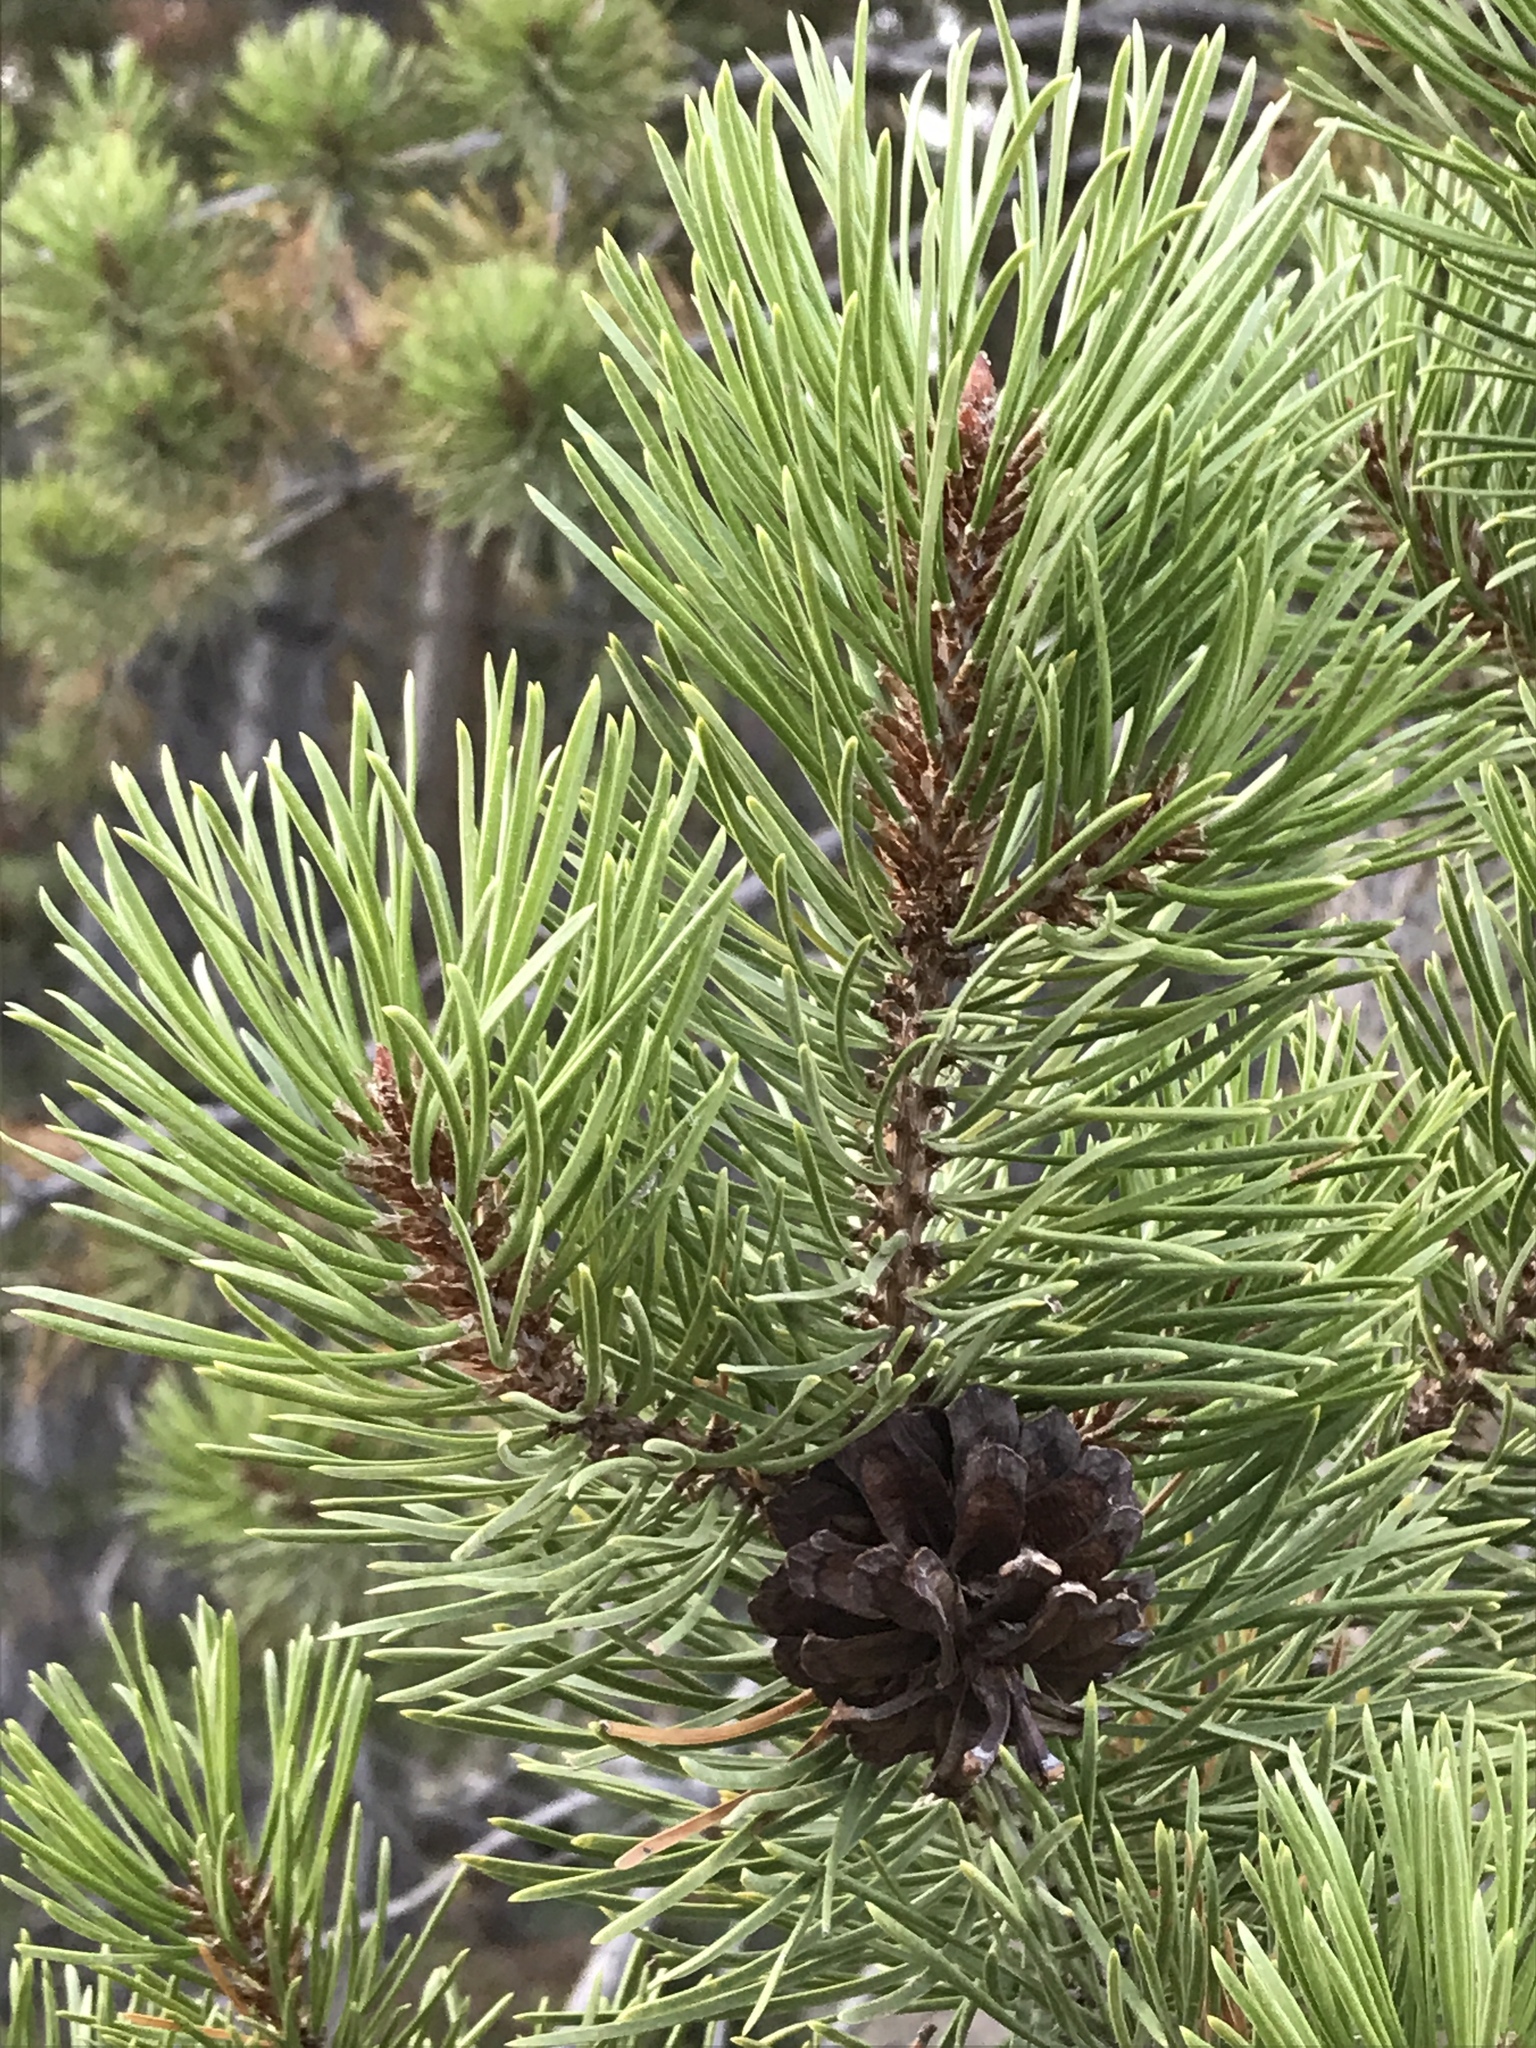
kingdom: Plantae
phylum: Tracheophyta
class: Pinopsida
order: Pinales
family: Pinaceae
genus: Pinus
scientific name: Pinus contorta
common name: Lodgepole pine
